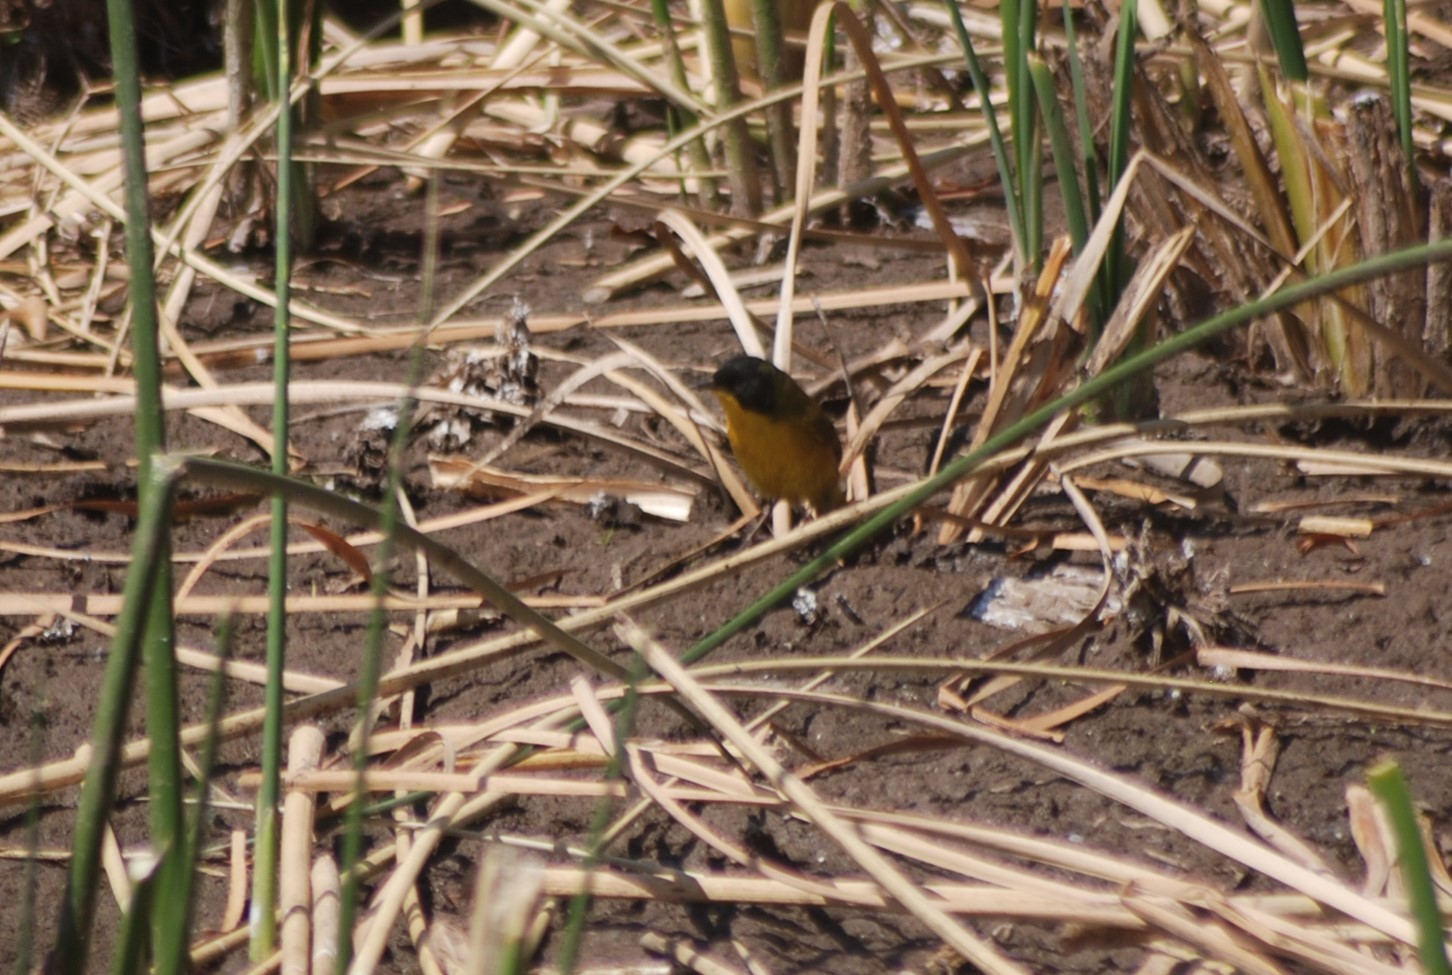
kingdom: Animalia
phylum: Chordata
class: Aves
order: Passeriformes
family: Parulidae
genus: Geothlypis
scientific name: Geothlypis speciosa
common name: Black-polled yellowthroat
